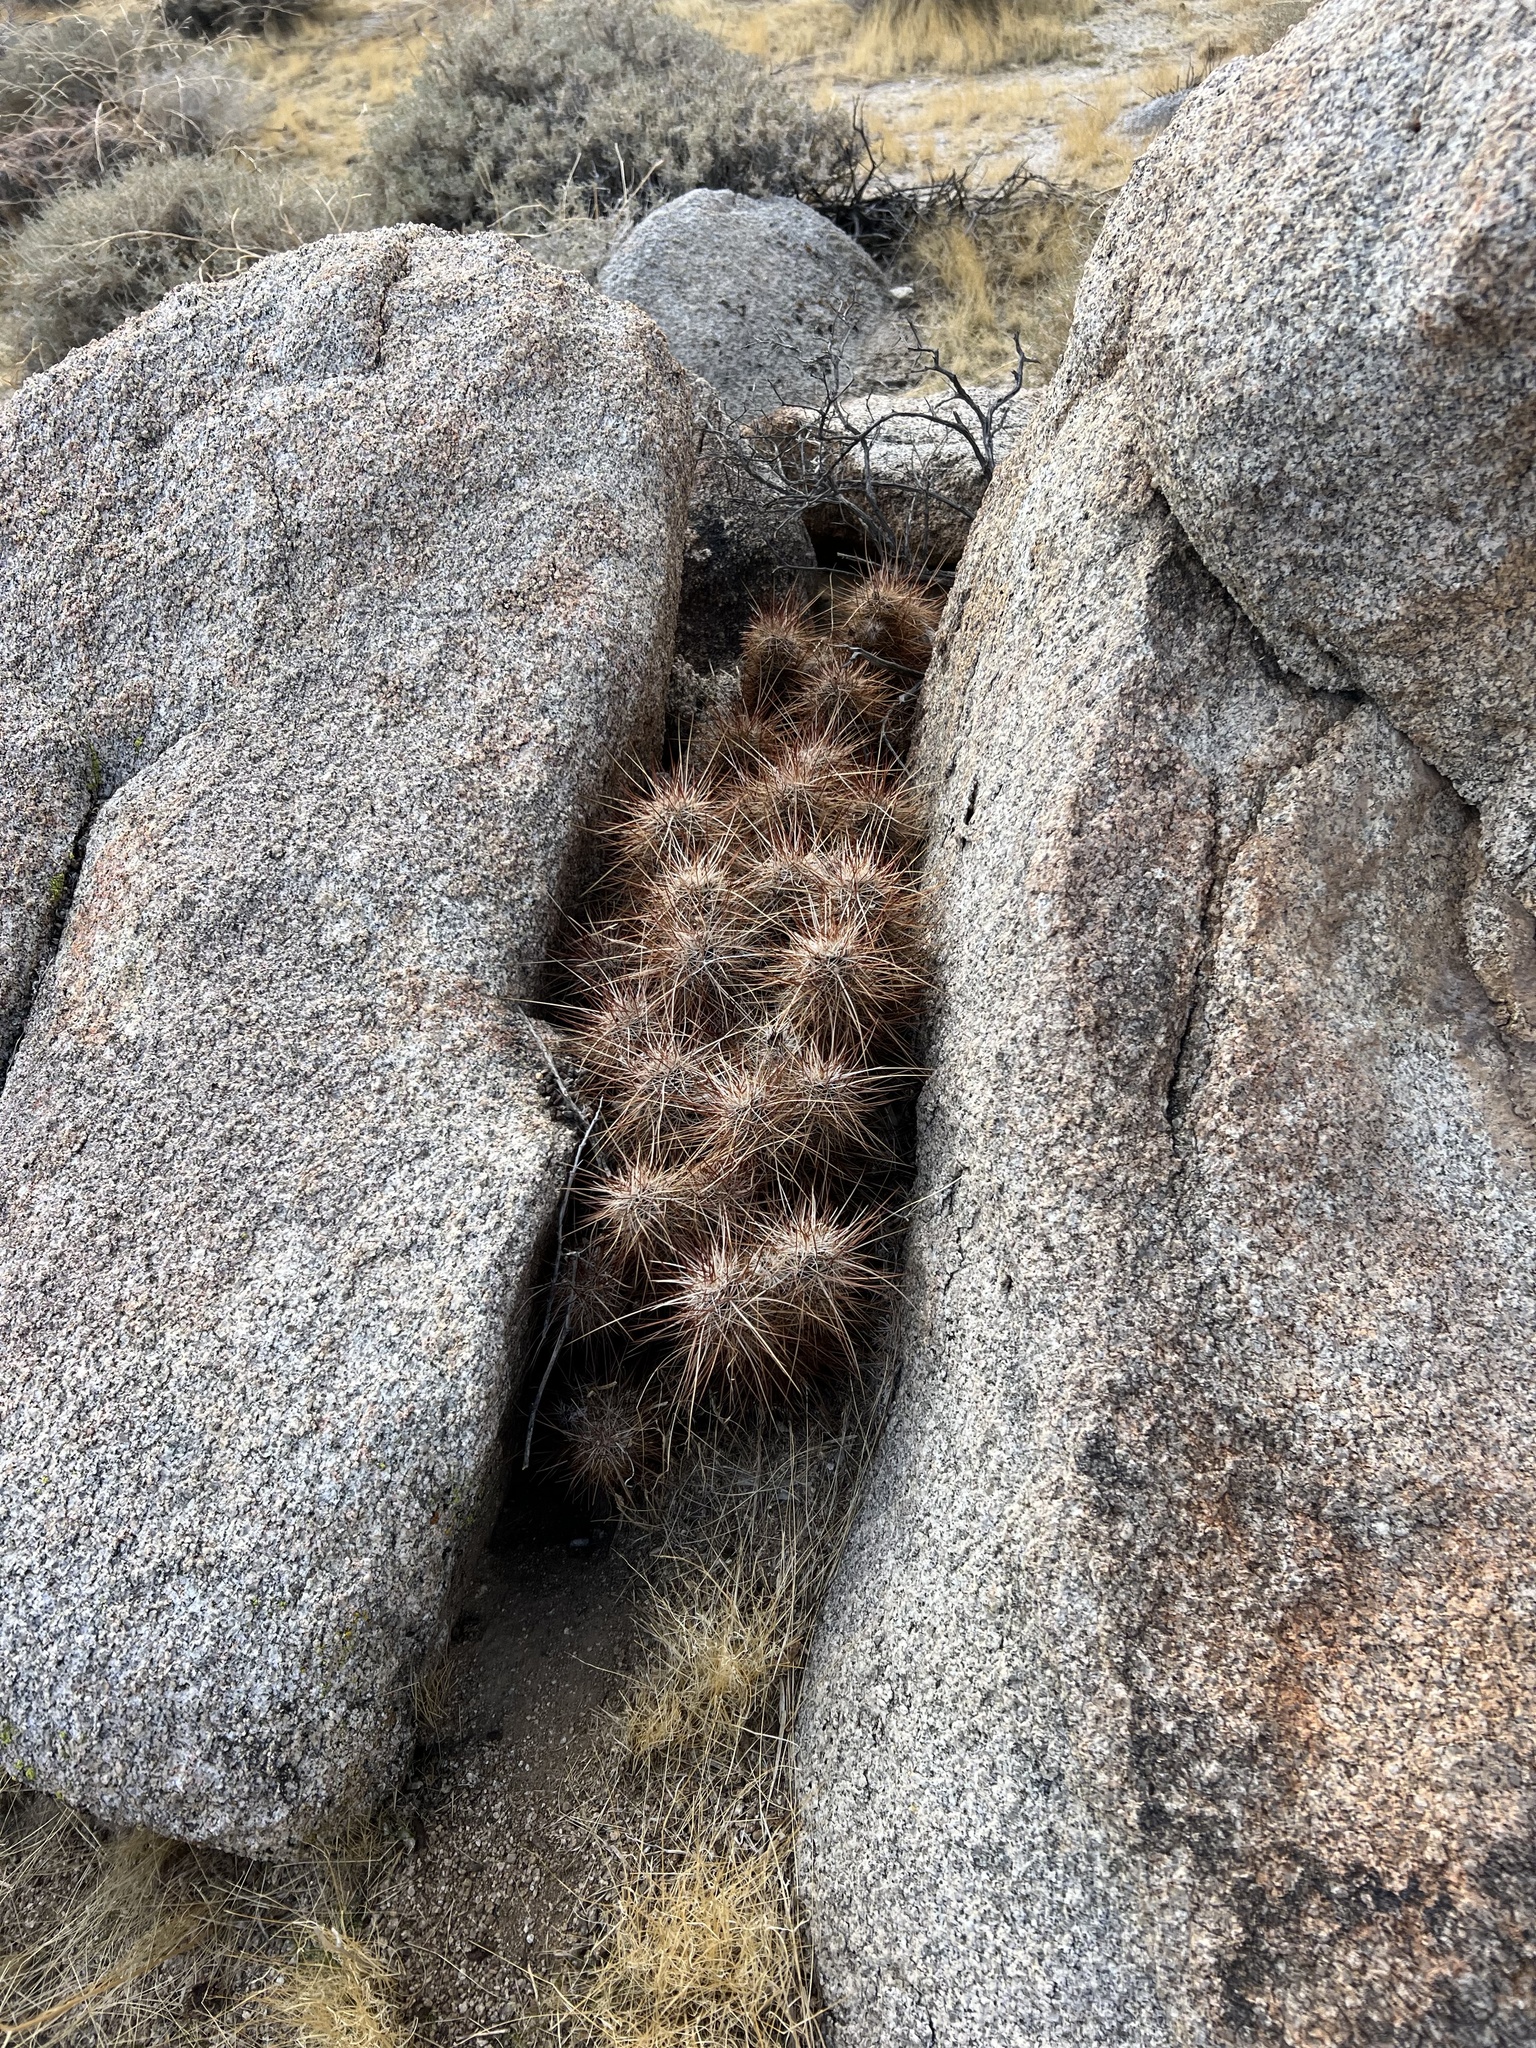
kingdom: Plantae
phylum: Tracheophyta
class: Magnoliopsida
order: Caryophyllales
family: Cactaceae
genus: Echinocereus
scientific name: Echinocereus engelmannii
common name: Engelmann's hedgehog cactus
